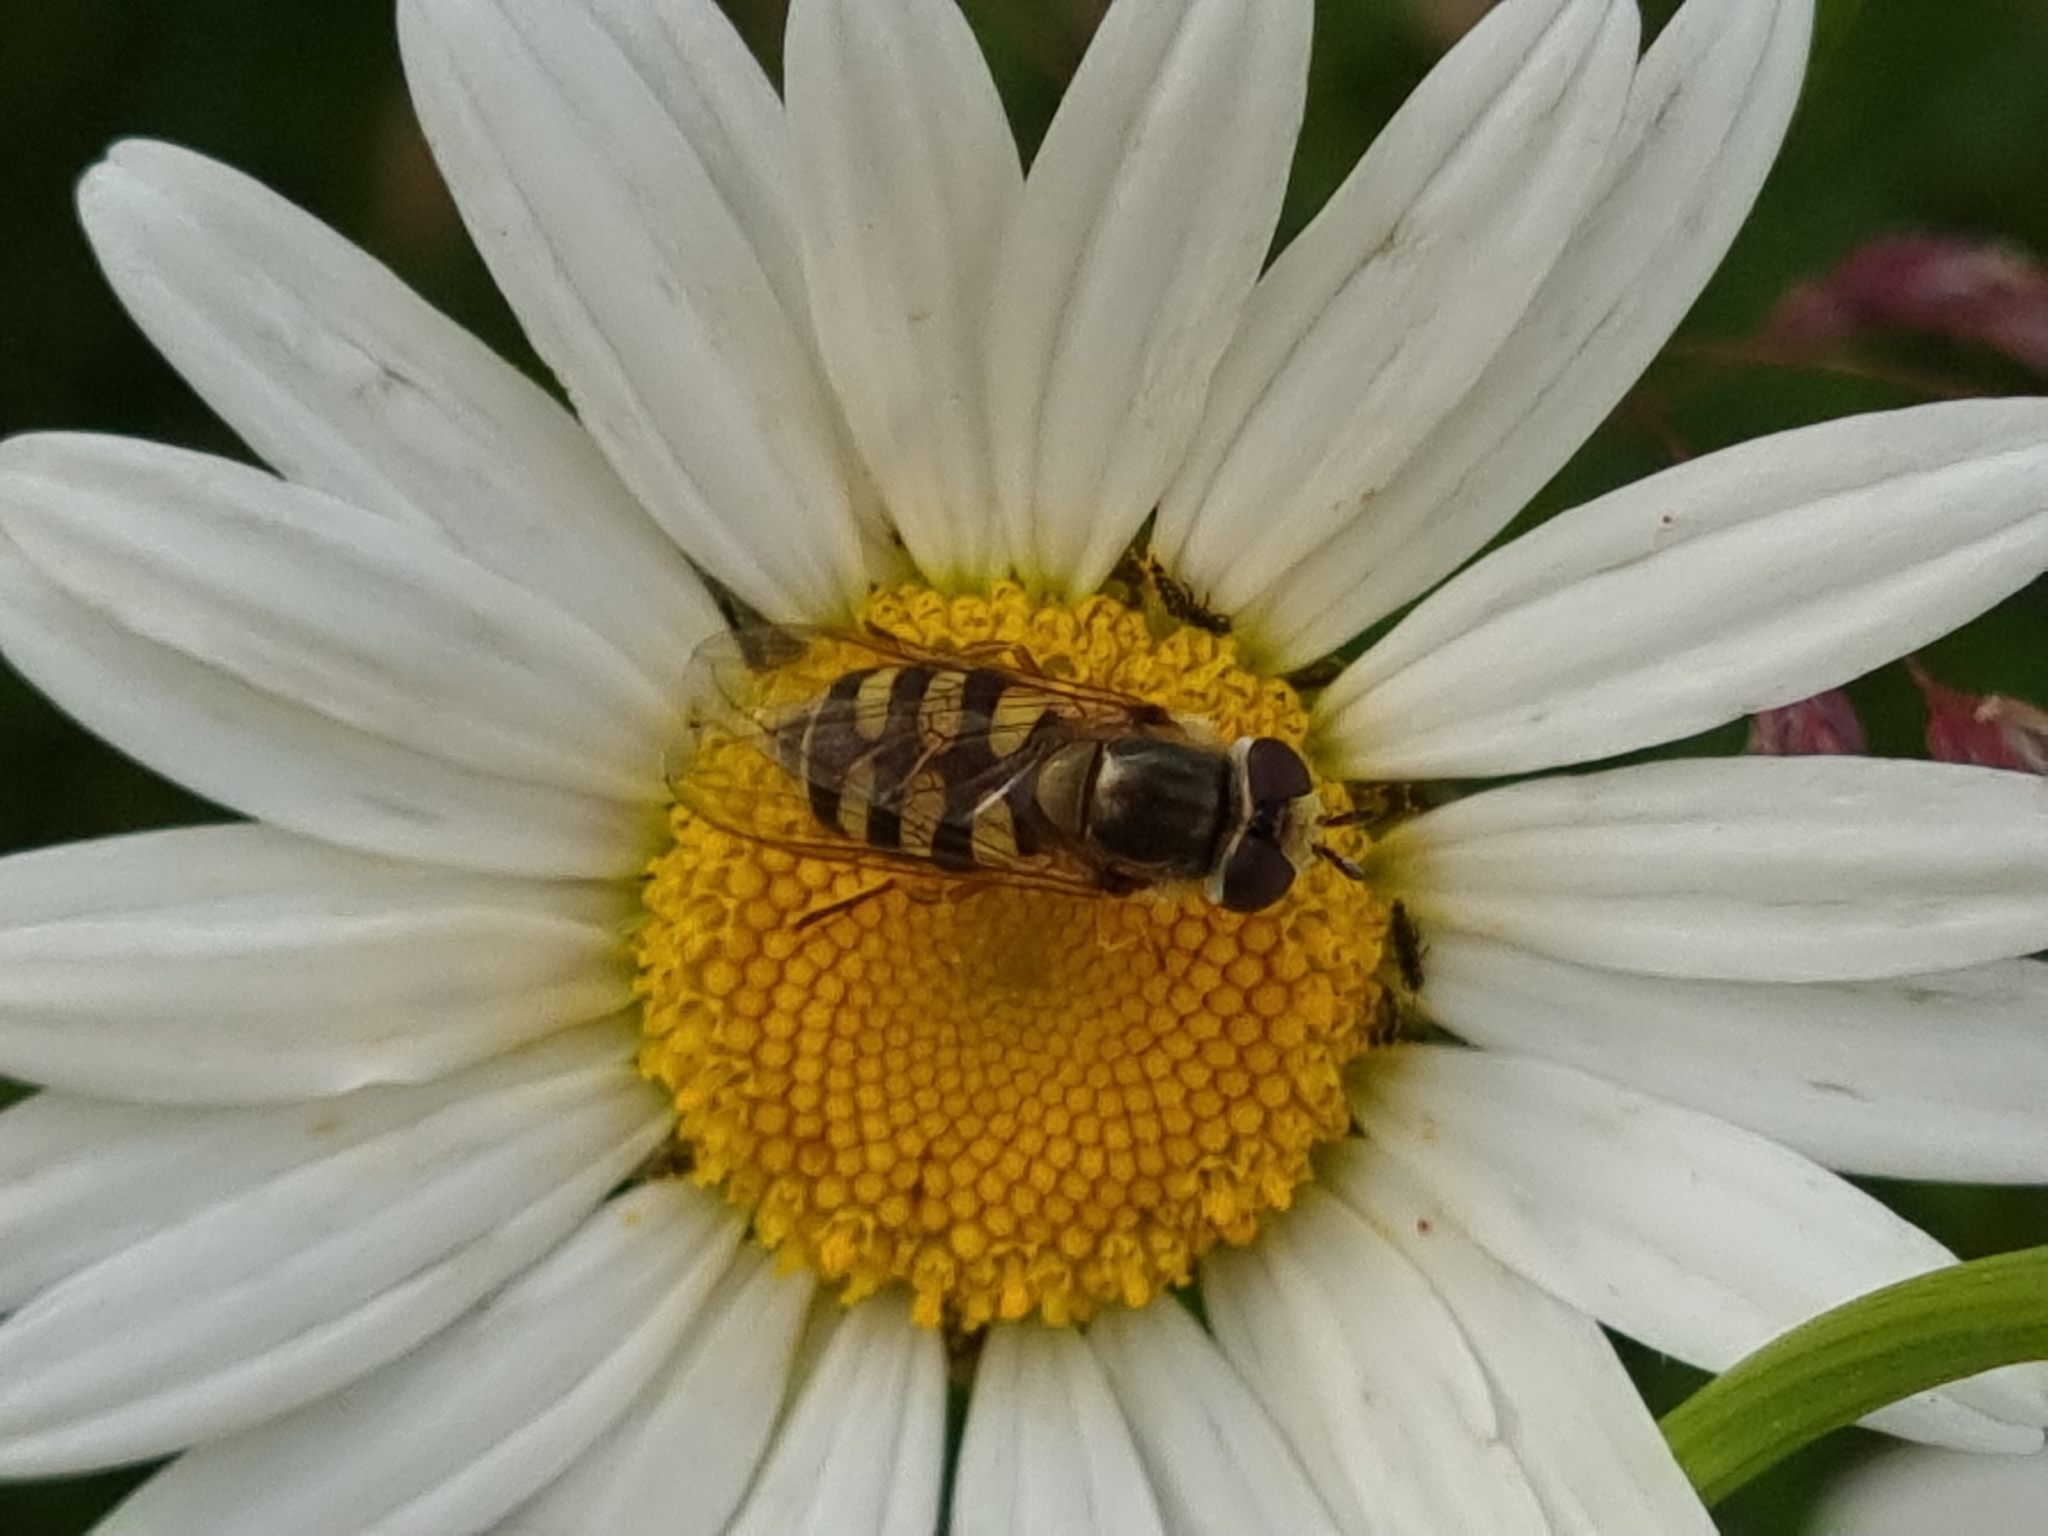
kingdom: Animalia
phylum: Arthropoda
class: Insecta
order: Diptera
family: Syrphidae
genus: Eupeodes
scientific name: Eupeodes corollae
